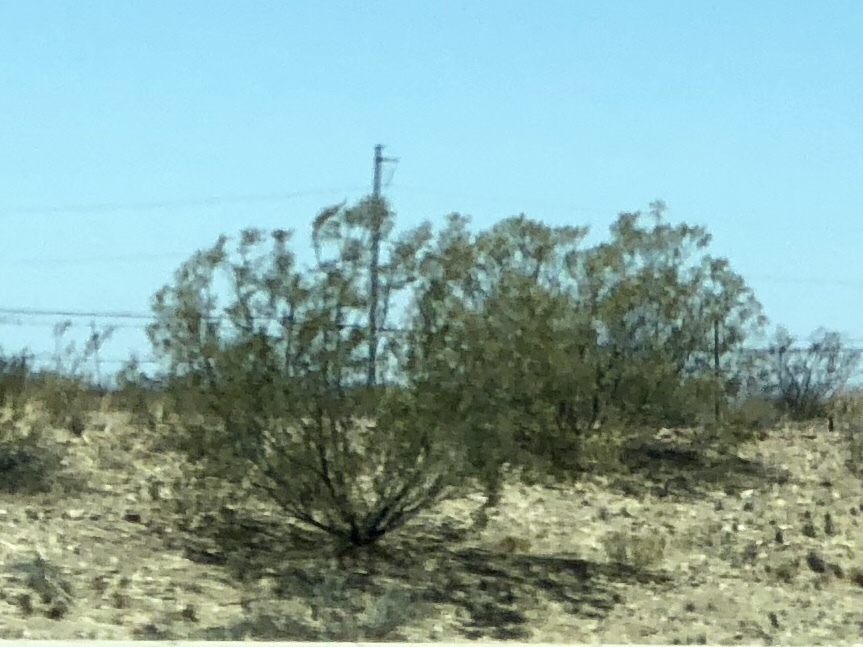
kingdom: Plantae
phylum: Tracheophyta
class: Magnoliopsida
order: Zygophyllales
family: Zygophyllaceae
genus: Larrea
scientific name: Larrea tridentata
